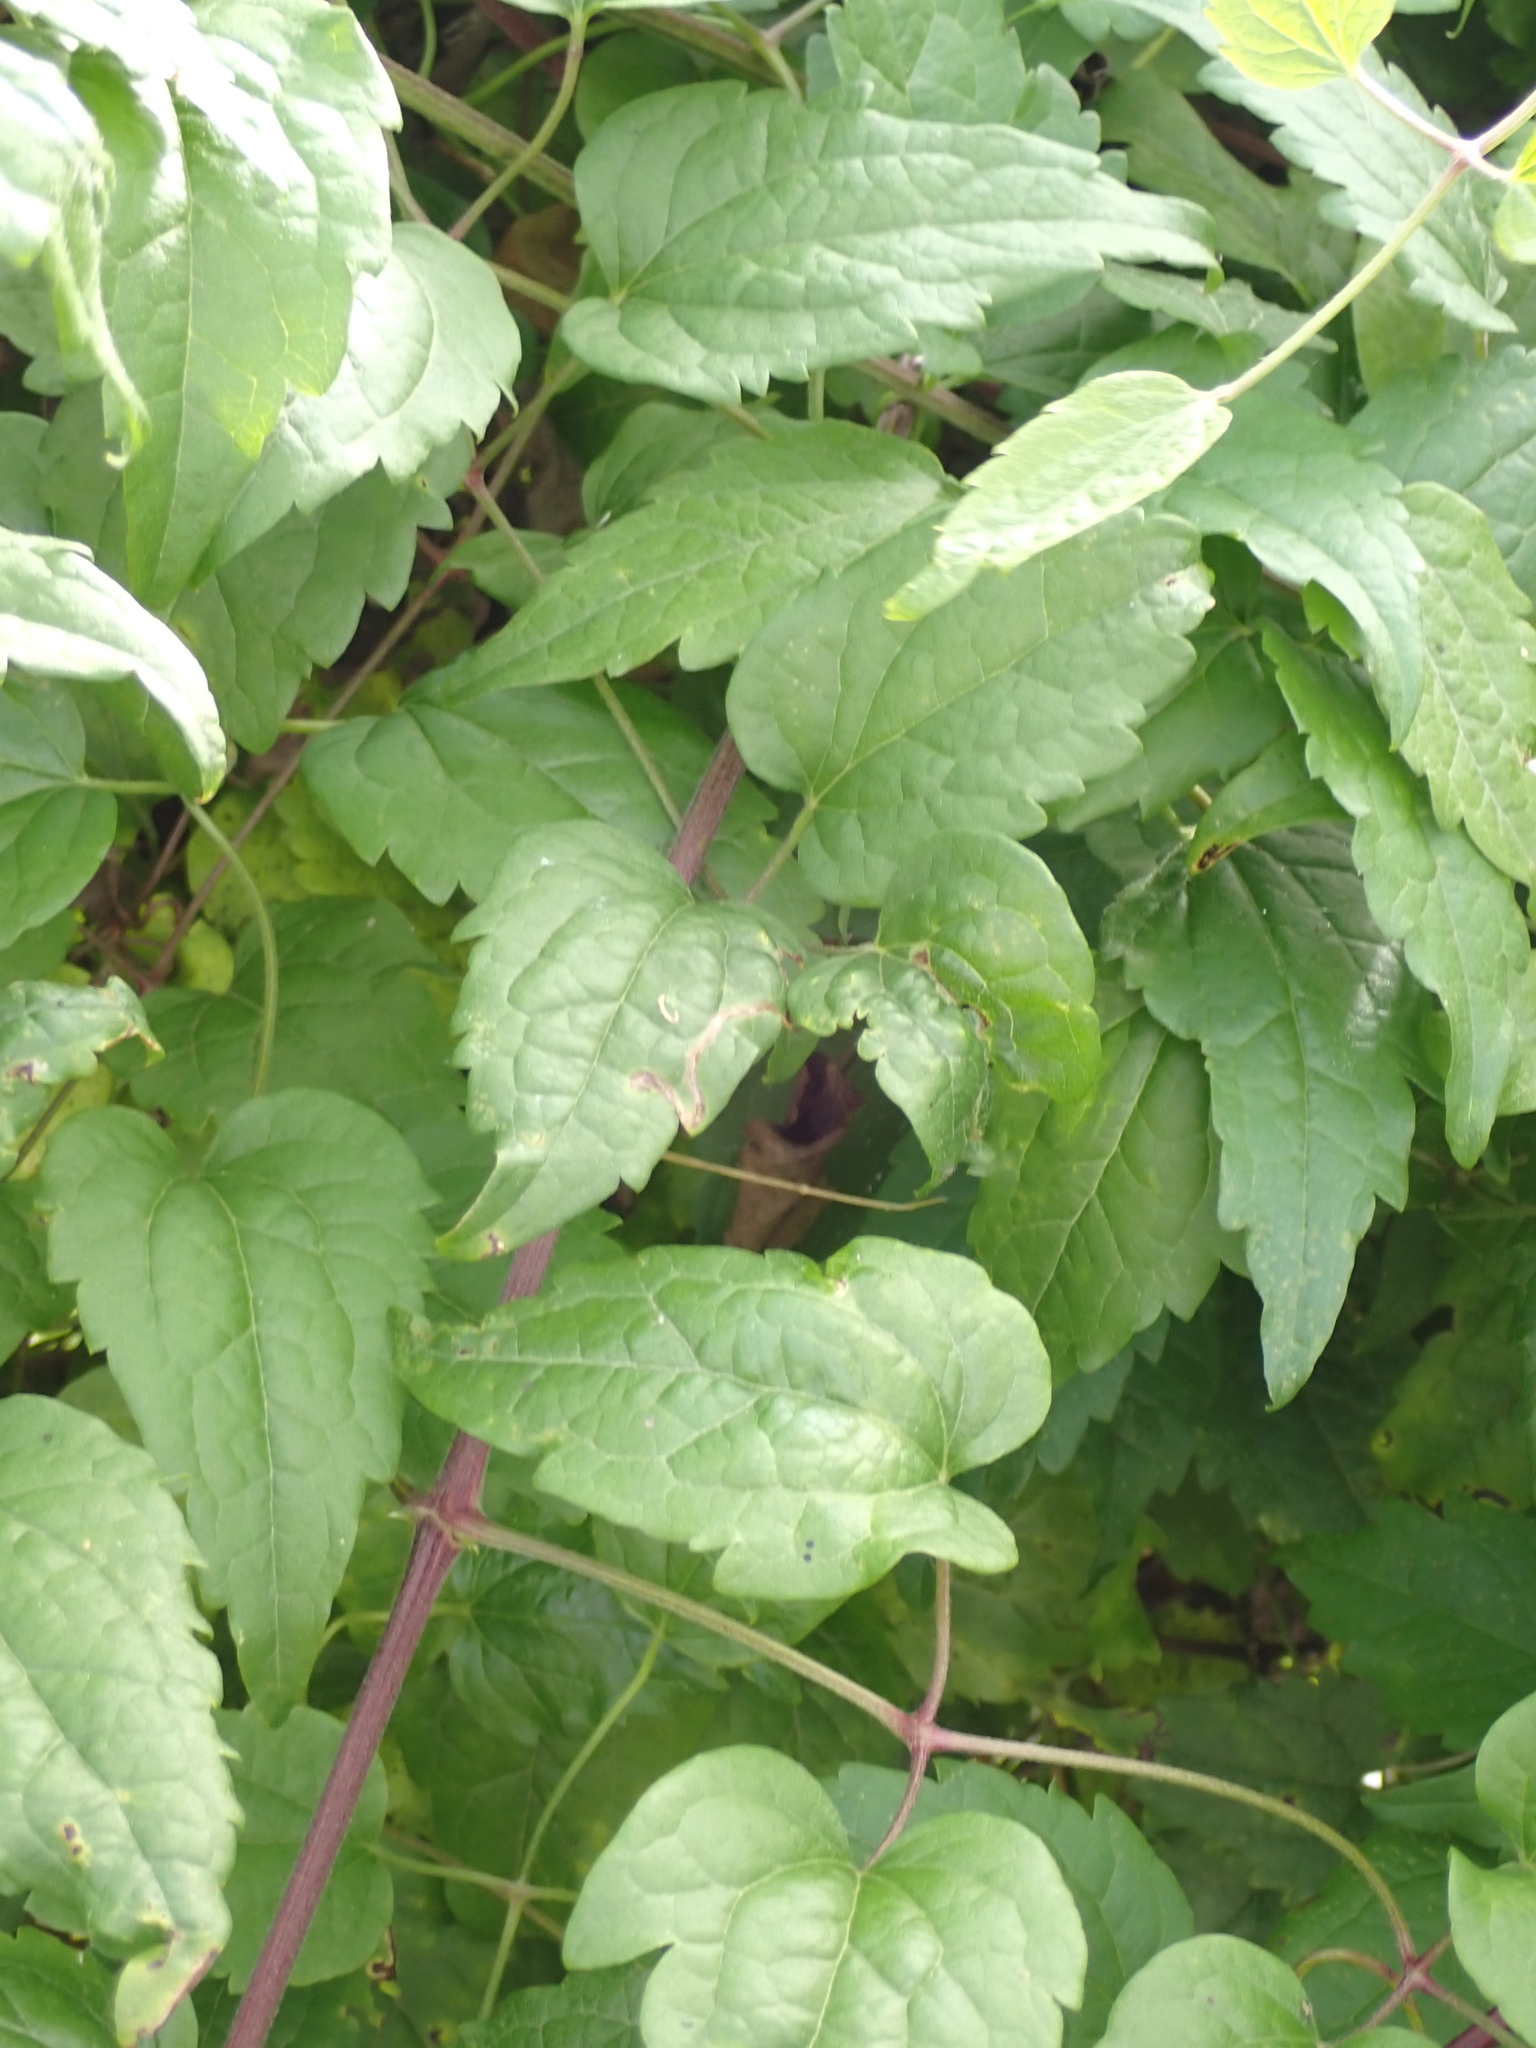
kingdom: Plantae
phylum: Tracheophyta
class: Magnoliopsida
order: Ranunculales
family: Ranunculaceae
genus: Clematis
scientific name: Clematis vitalba
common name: Evergreen clematis
